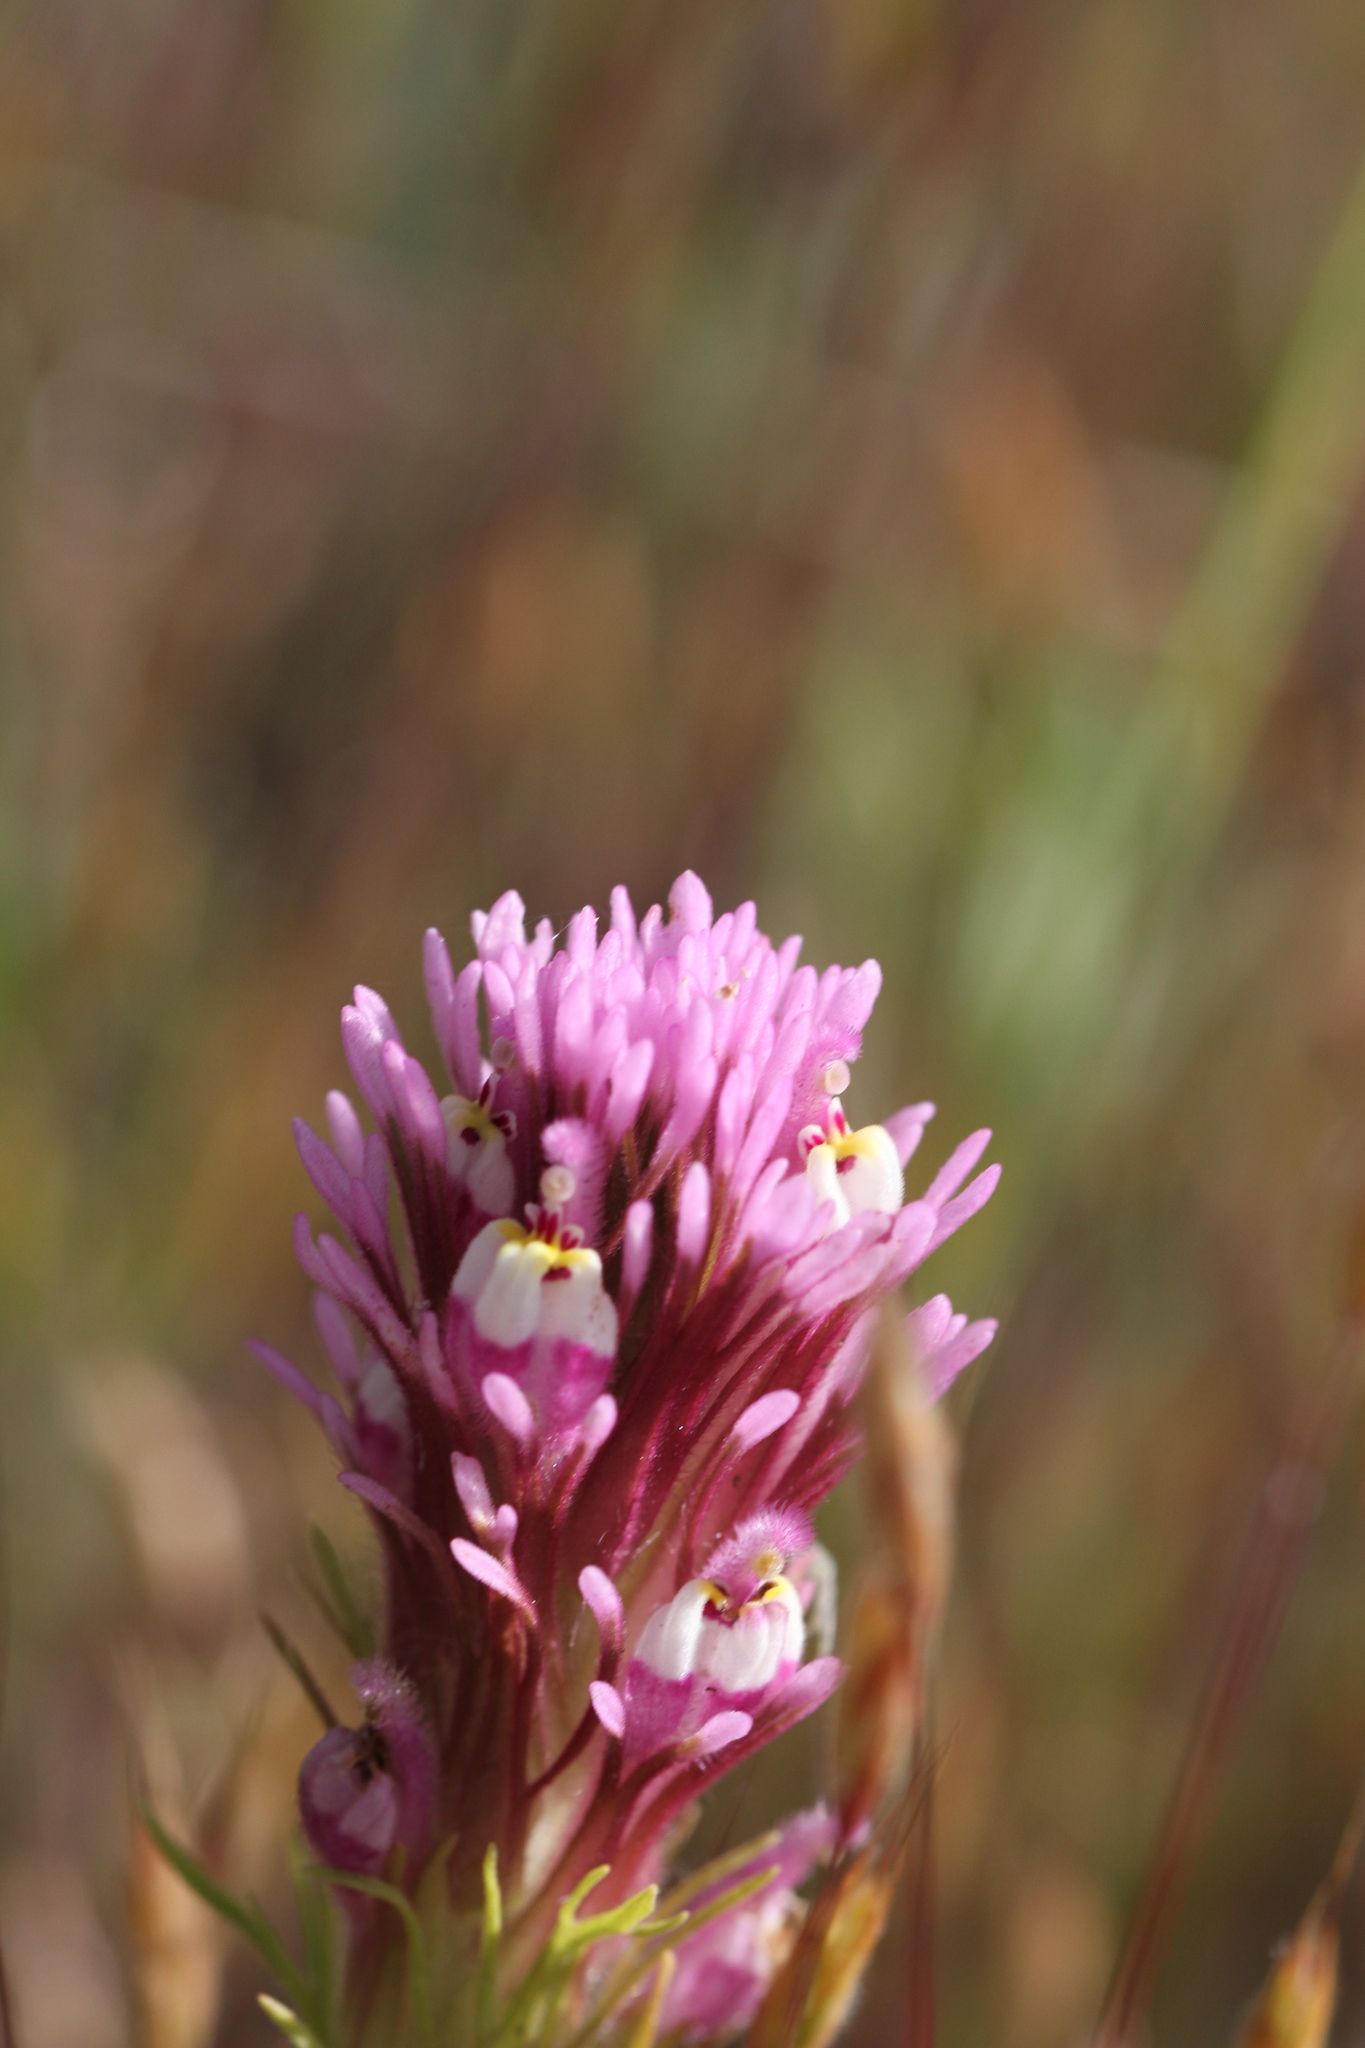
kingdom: Plantae
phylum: Tracheophyta
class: Magnoliopsida
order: Lamiales
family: Orobanchaceae
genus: Castilleja
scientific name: Castilleja exserta
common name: Purple owl-clover
